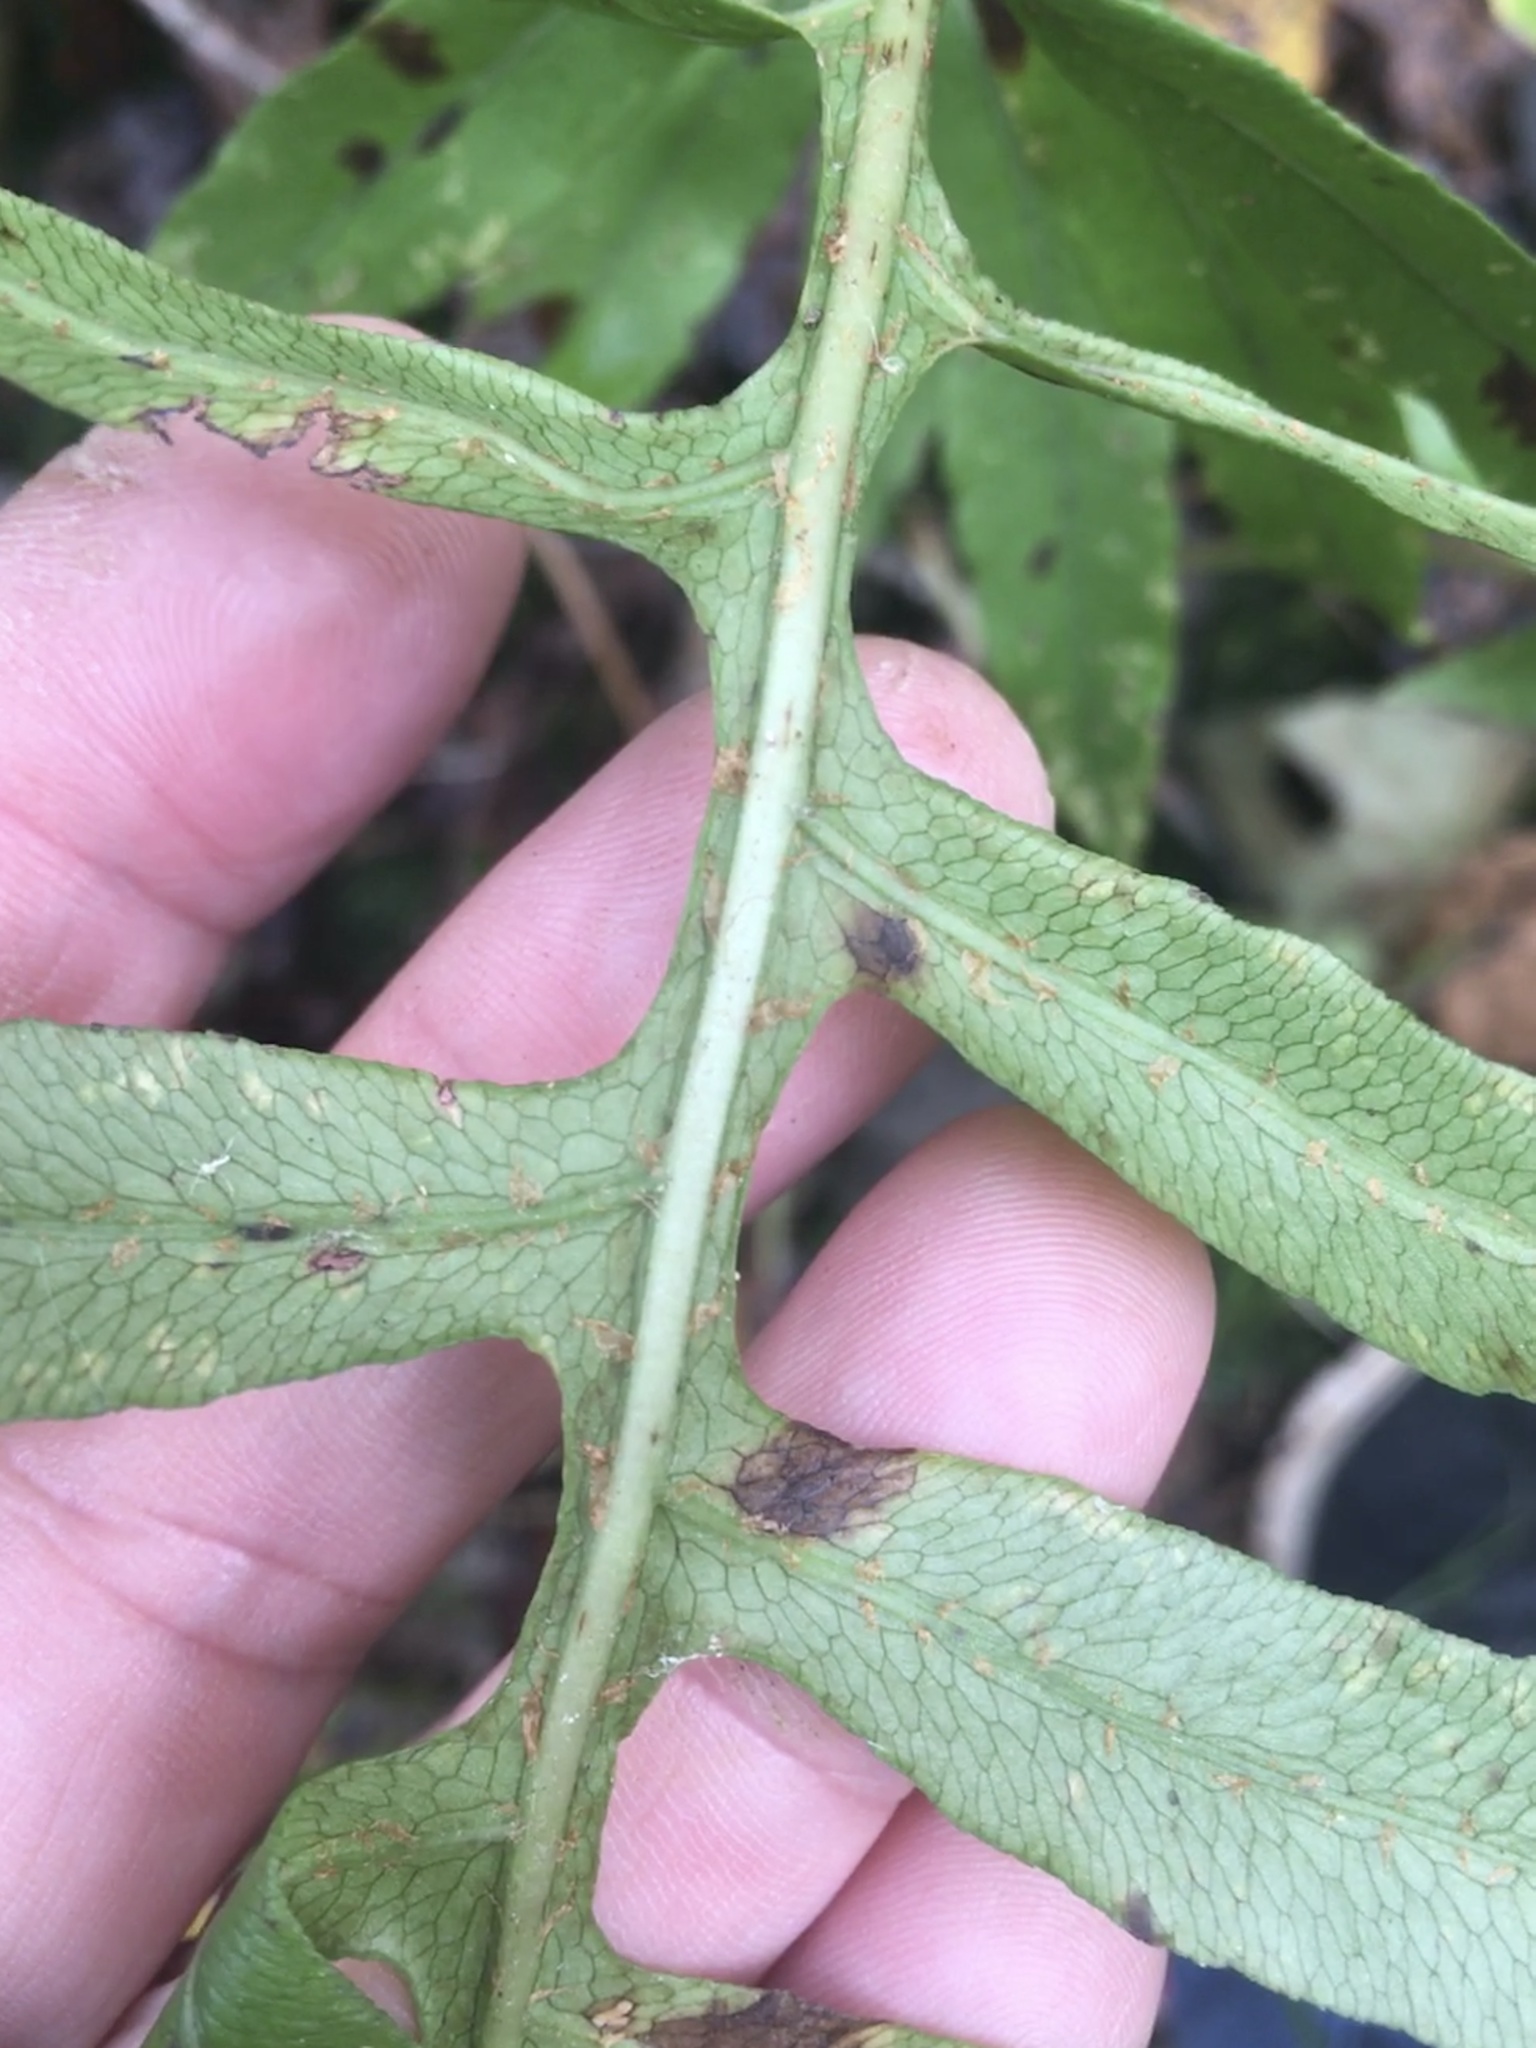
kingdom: Plantae
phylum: Tracheophyta
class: Polypodiopsida
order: Polypodiales
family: Blechnaceae
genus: Lorinseria
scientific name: Lorinseria areolata
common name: Dwarf chain fern
